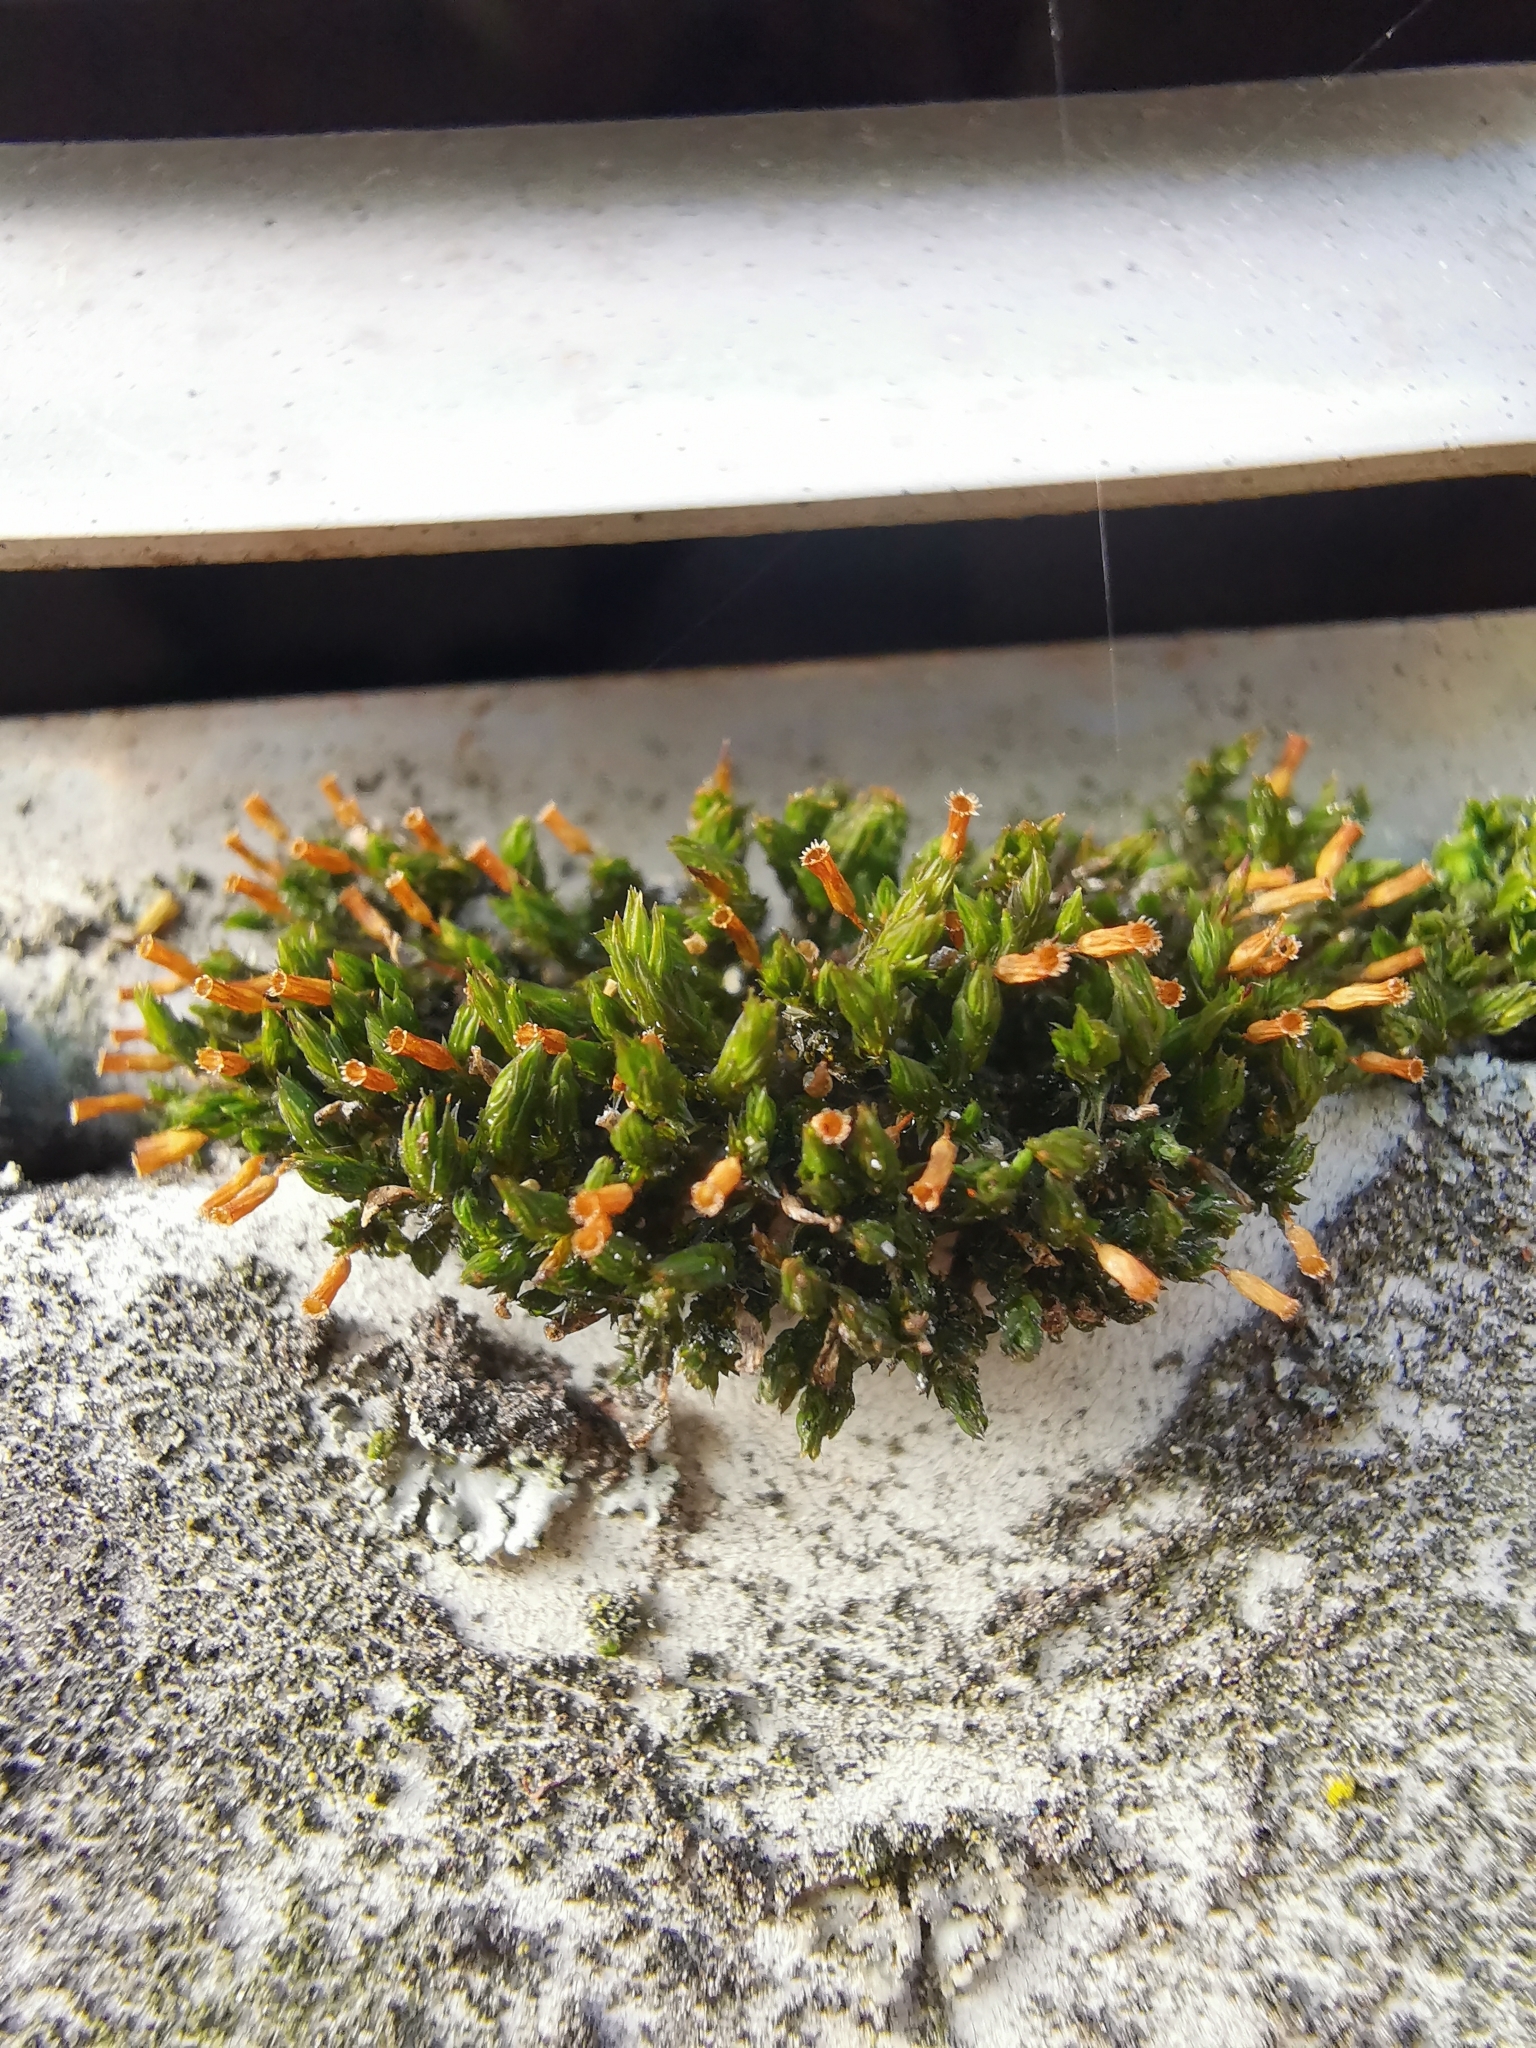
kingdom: Plantae
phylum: Bryophyta
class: Bryopsida
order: Orthotrichales
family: Orthotrichaceae
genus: Orthotrichum
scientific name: Orthotrichum anomalum
